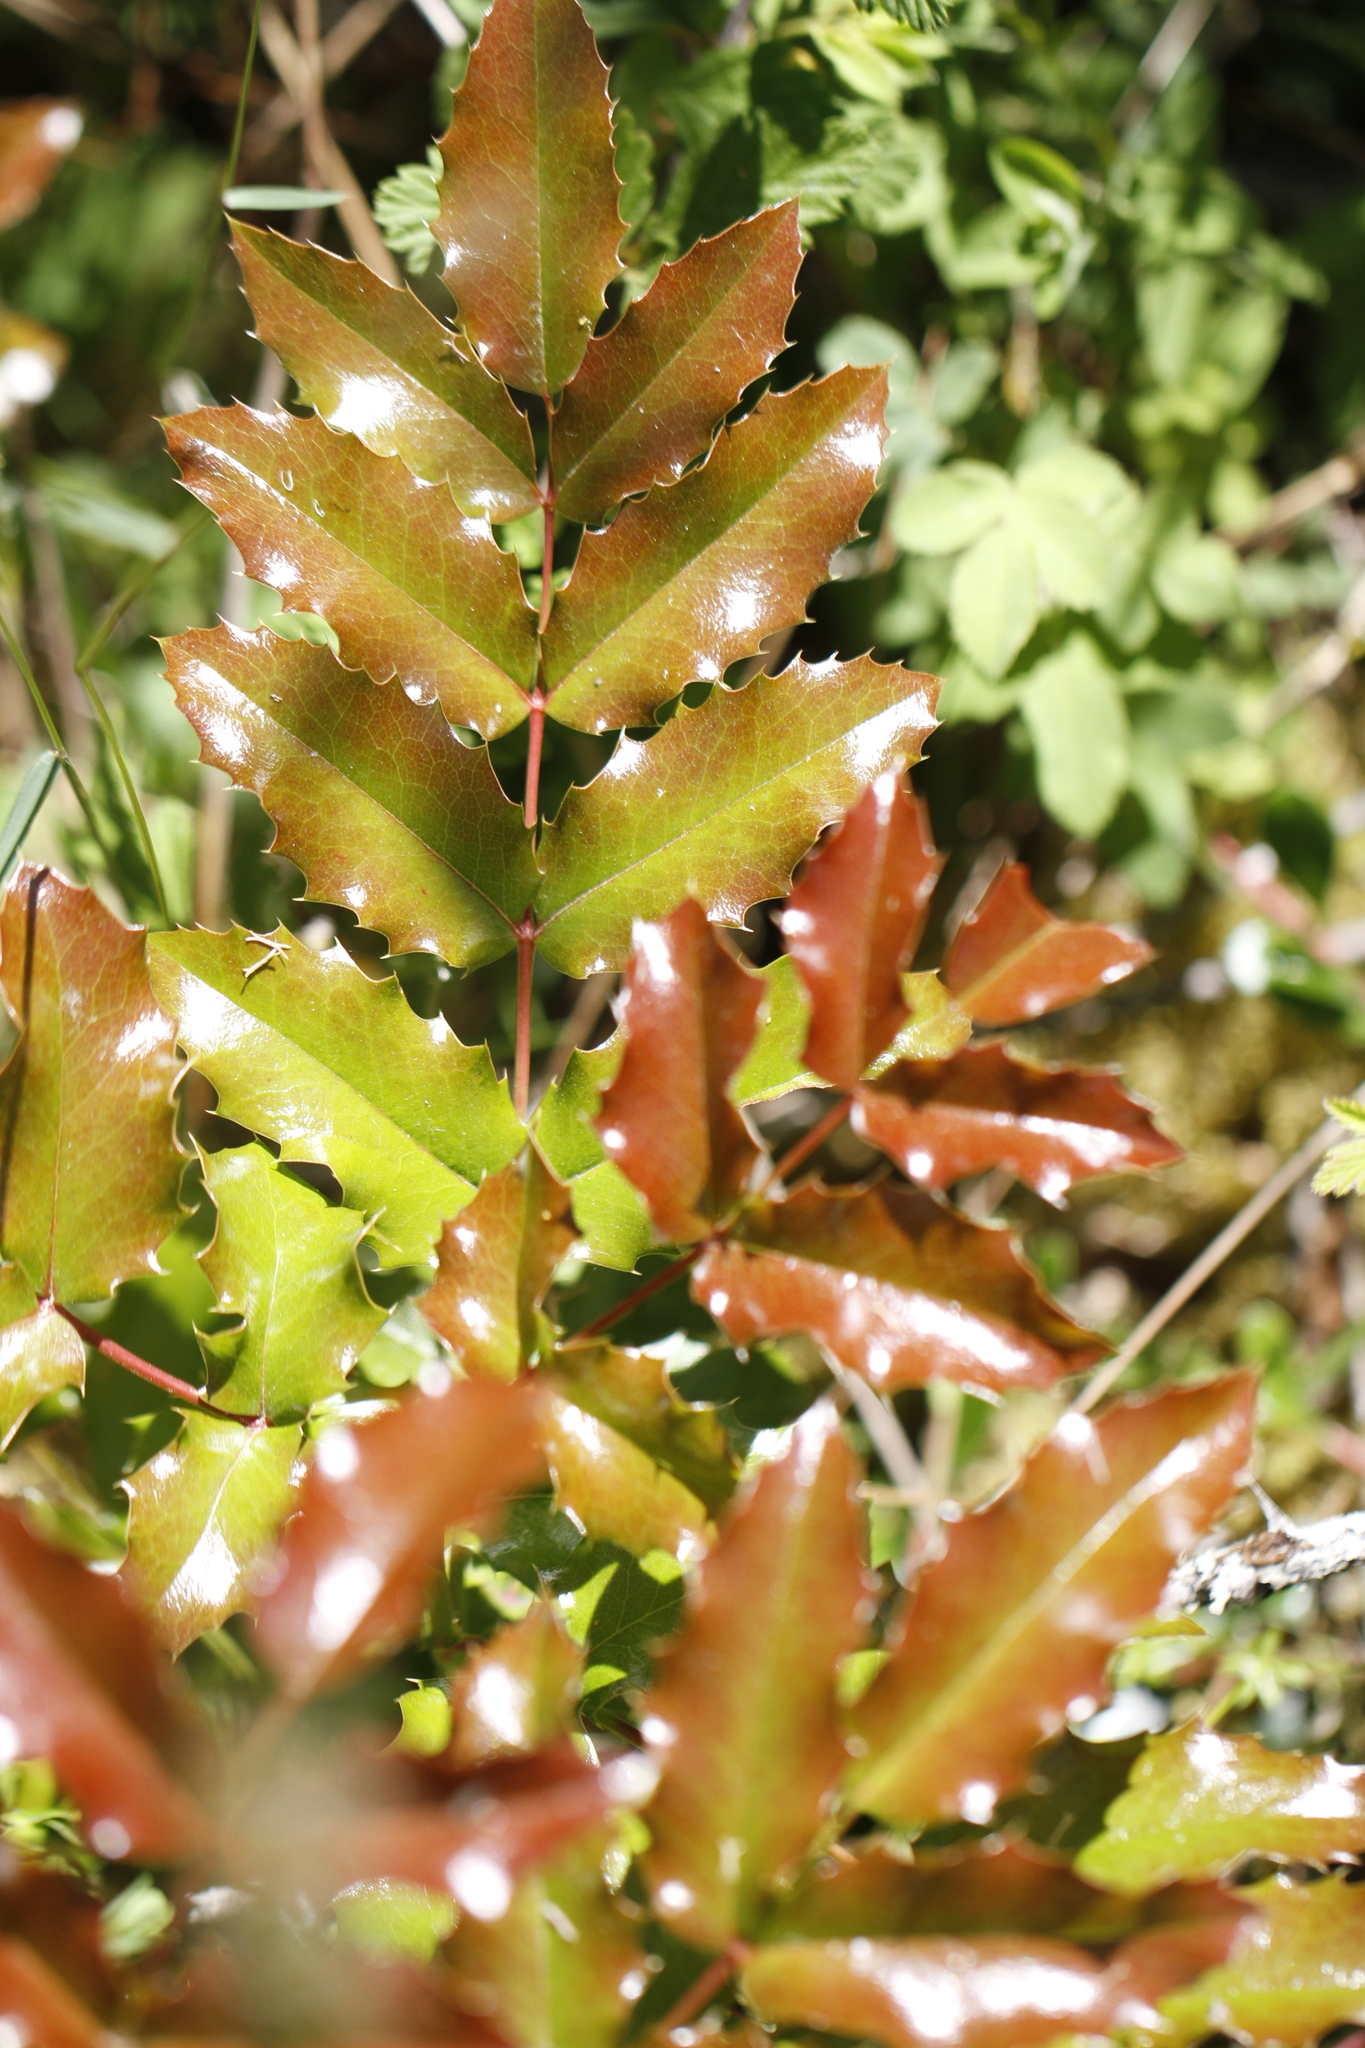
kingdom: Plantae
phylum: Tracheophyta
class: Magnoliopsida
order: Ranunculales
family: Berberidaceae
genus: Mahonia
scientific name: Mahonia aquifolium
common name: Oregon-grape
